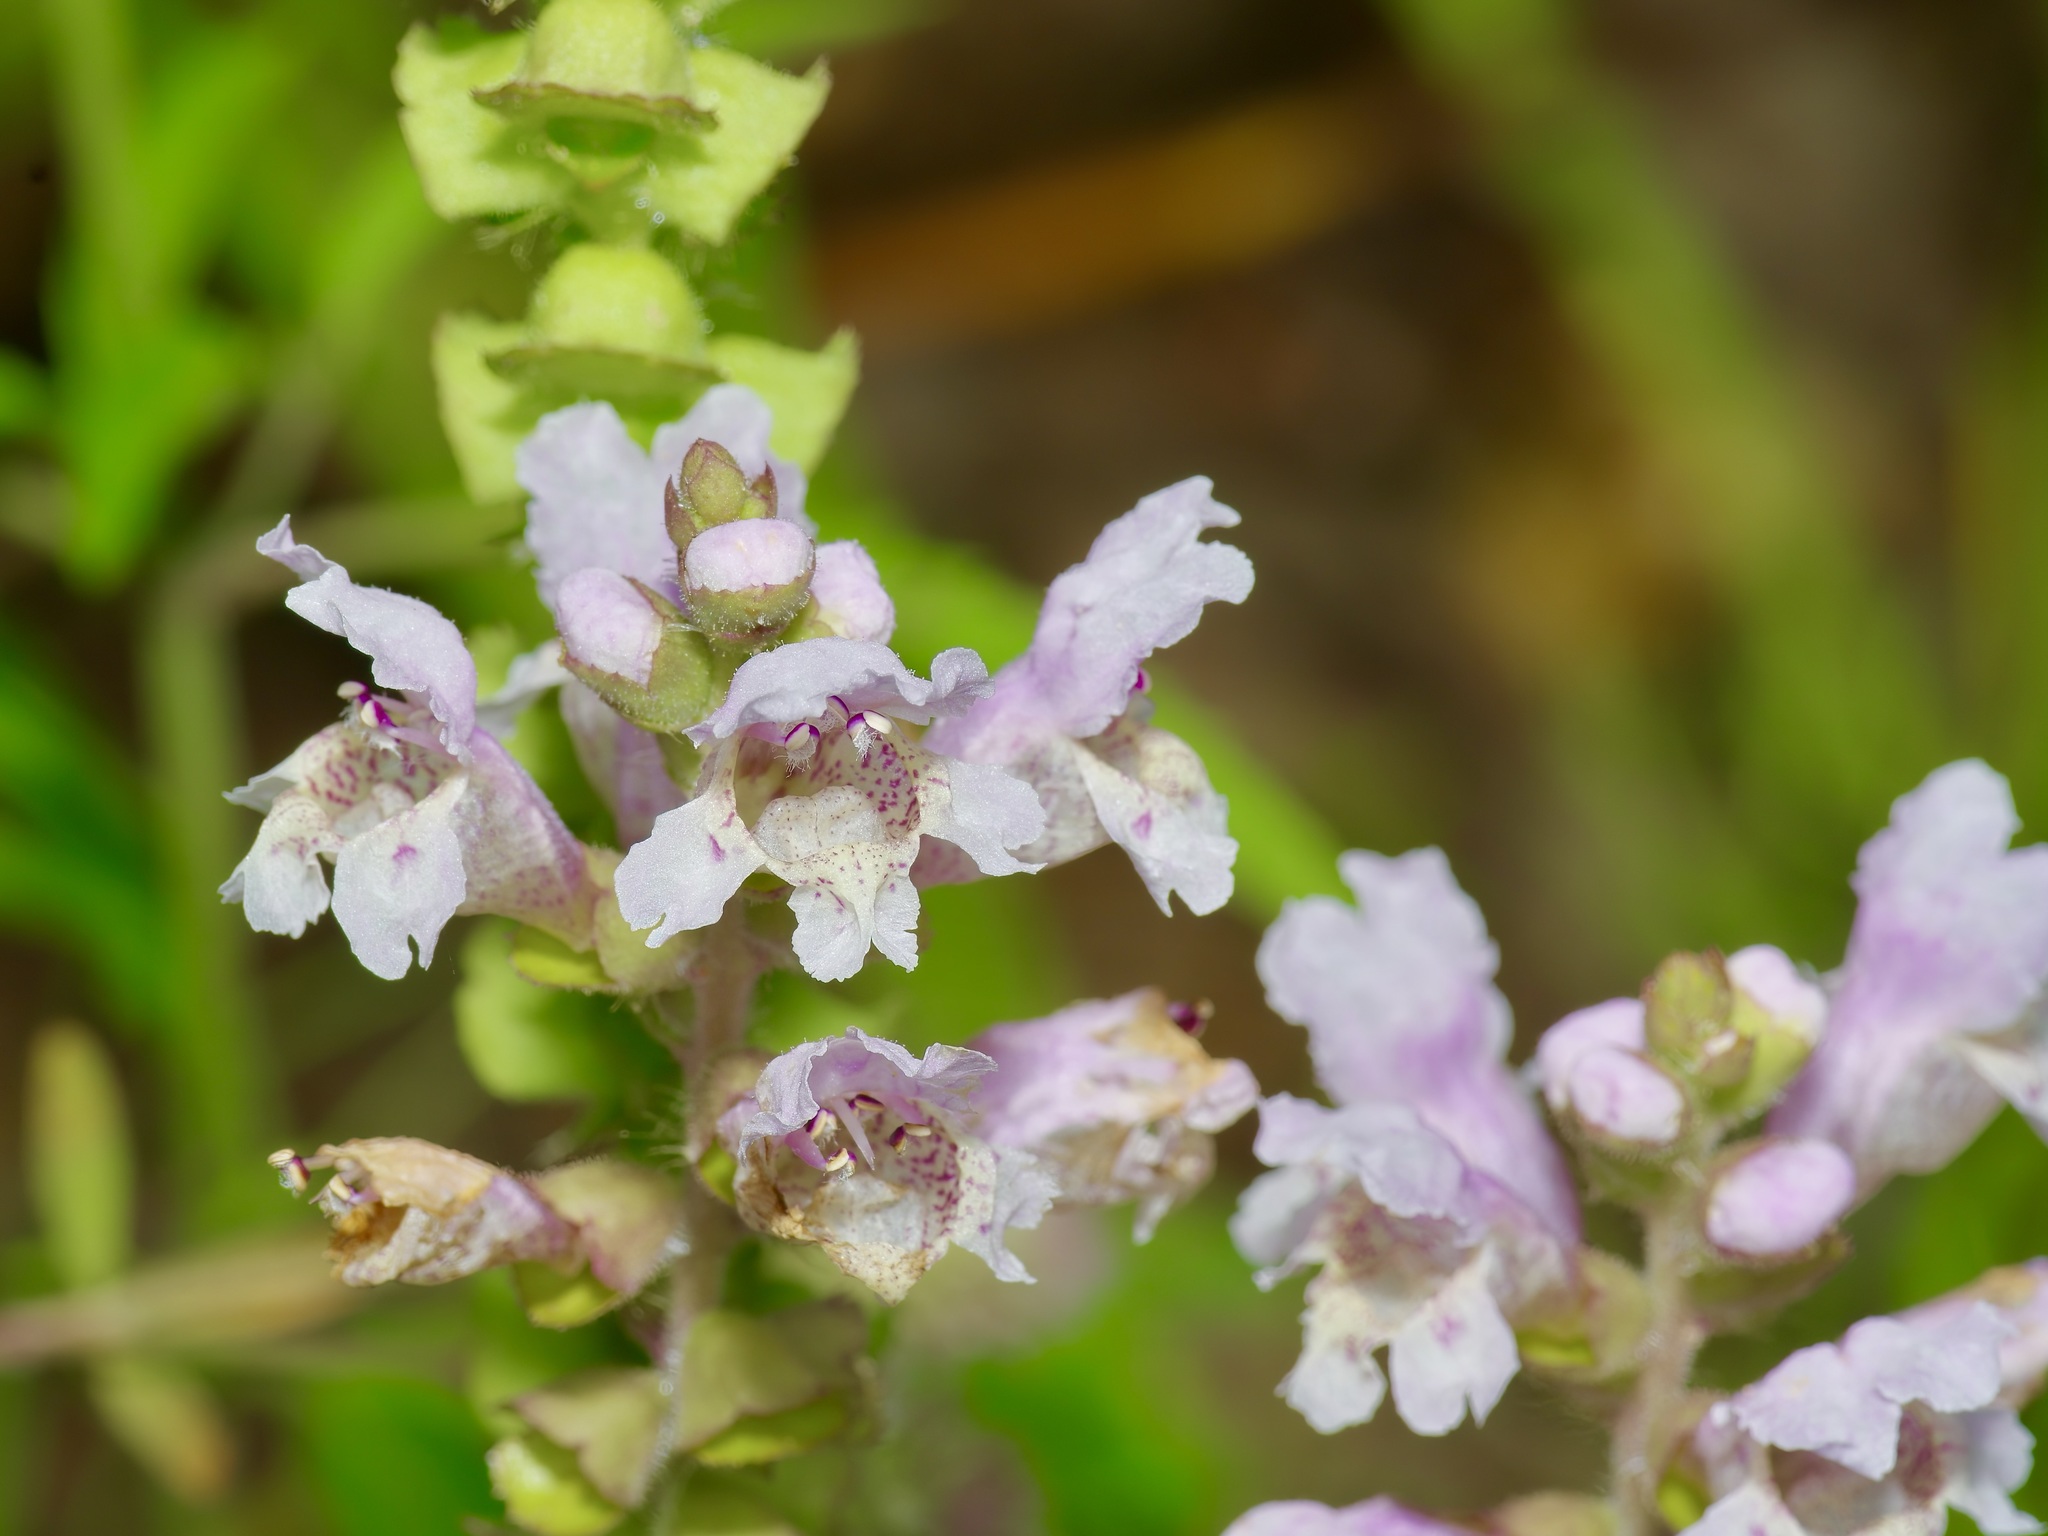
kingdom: Plantae
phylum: Tracheophyta
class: Magnoliopsida
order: Lamiales
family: Lamiaceae
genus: Brazoria
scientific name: Brazoria truncata
